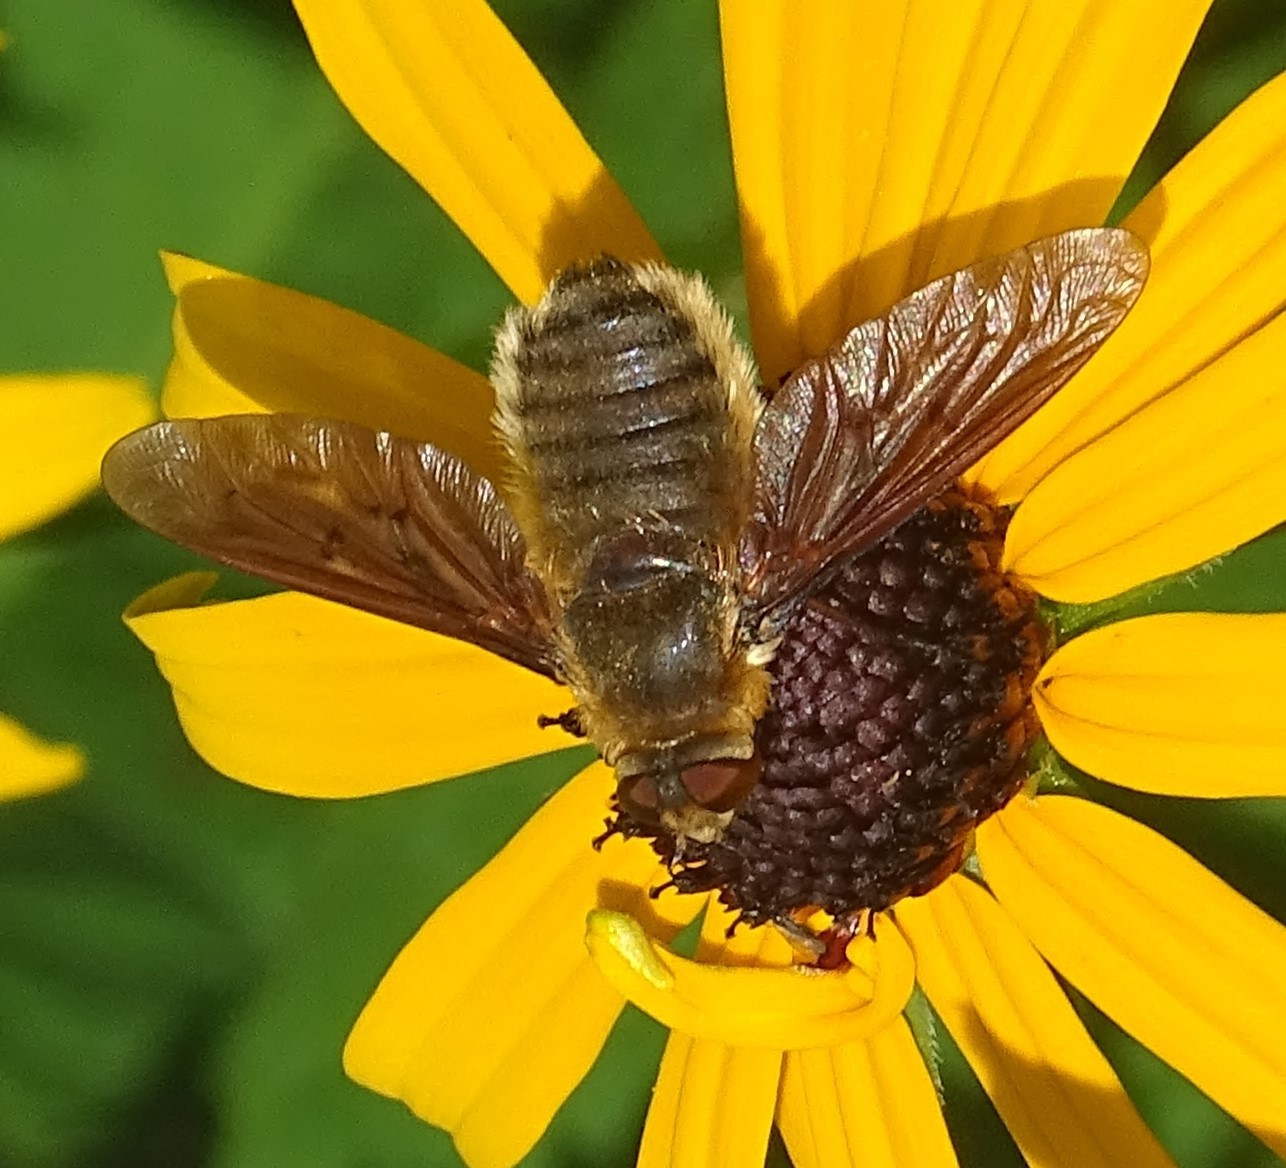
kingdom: Animalia
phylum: Arthropoda
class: Insecta
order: Diptera
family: Bombyliidae
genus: Poecilanthrax
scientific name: Poecilanthrax tegminipennis
